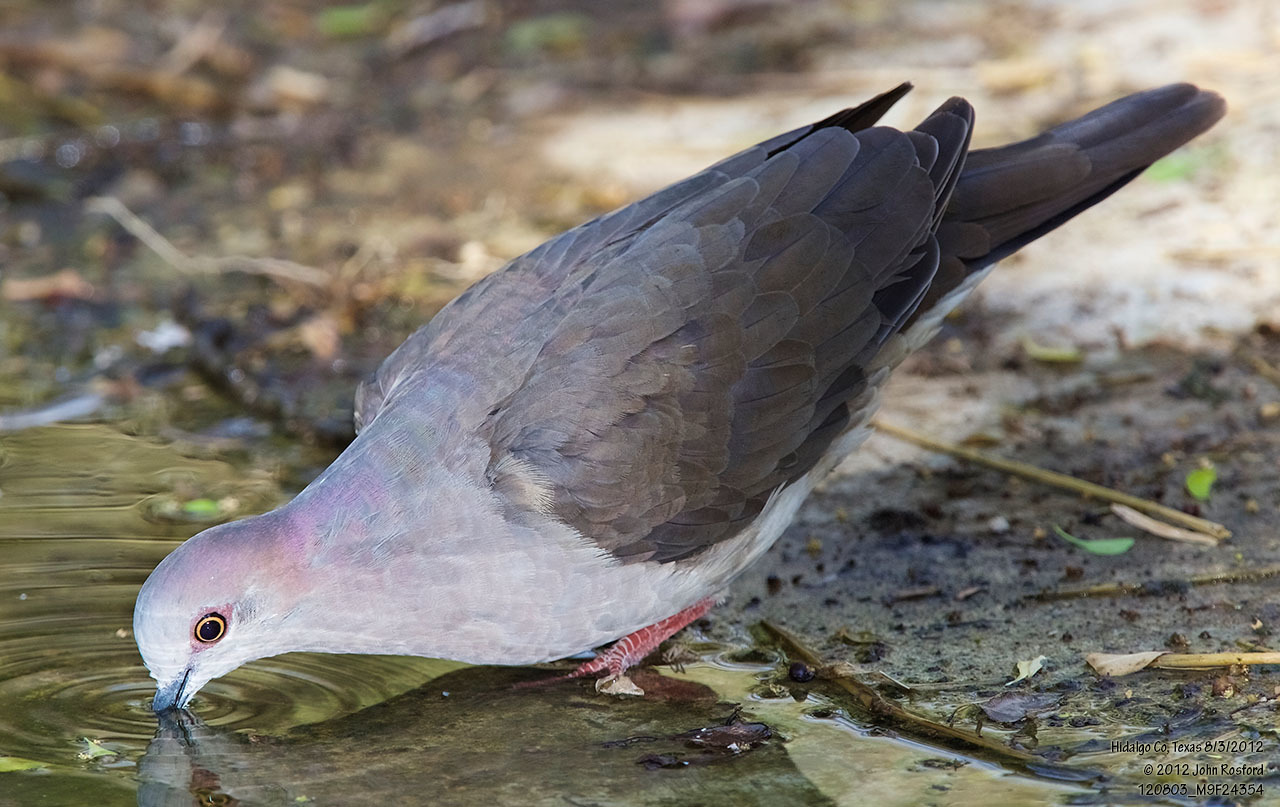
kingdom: Animalia
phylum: Chordata
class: Aves
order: Columbiformes
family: Columbidae
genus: Leptotila
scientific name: Leptotila verreauxi
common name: White-tipped dove
